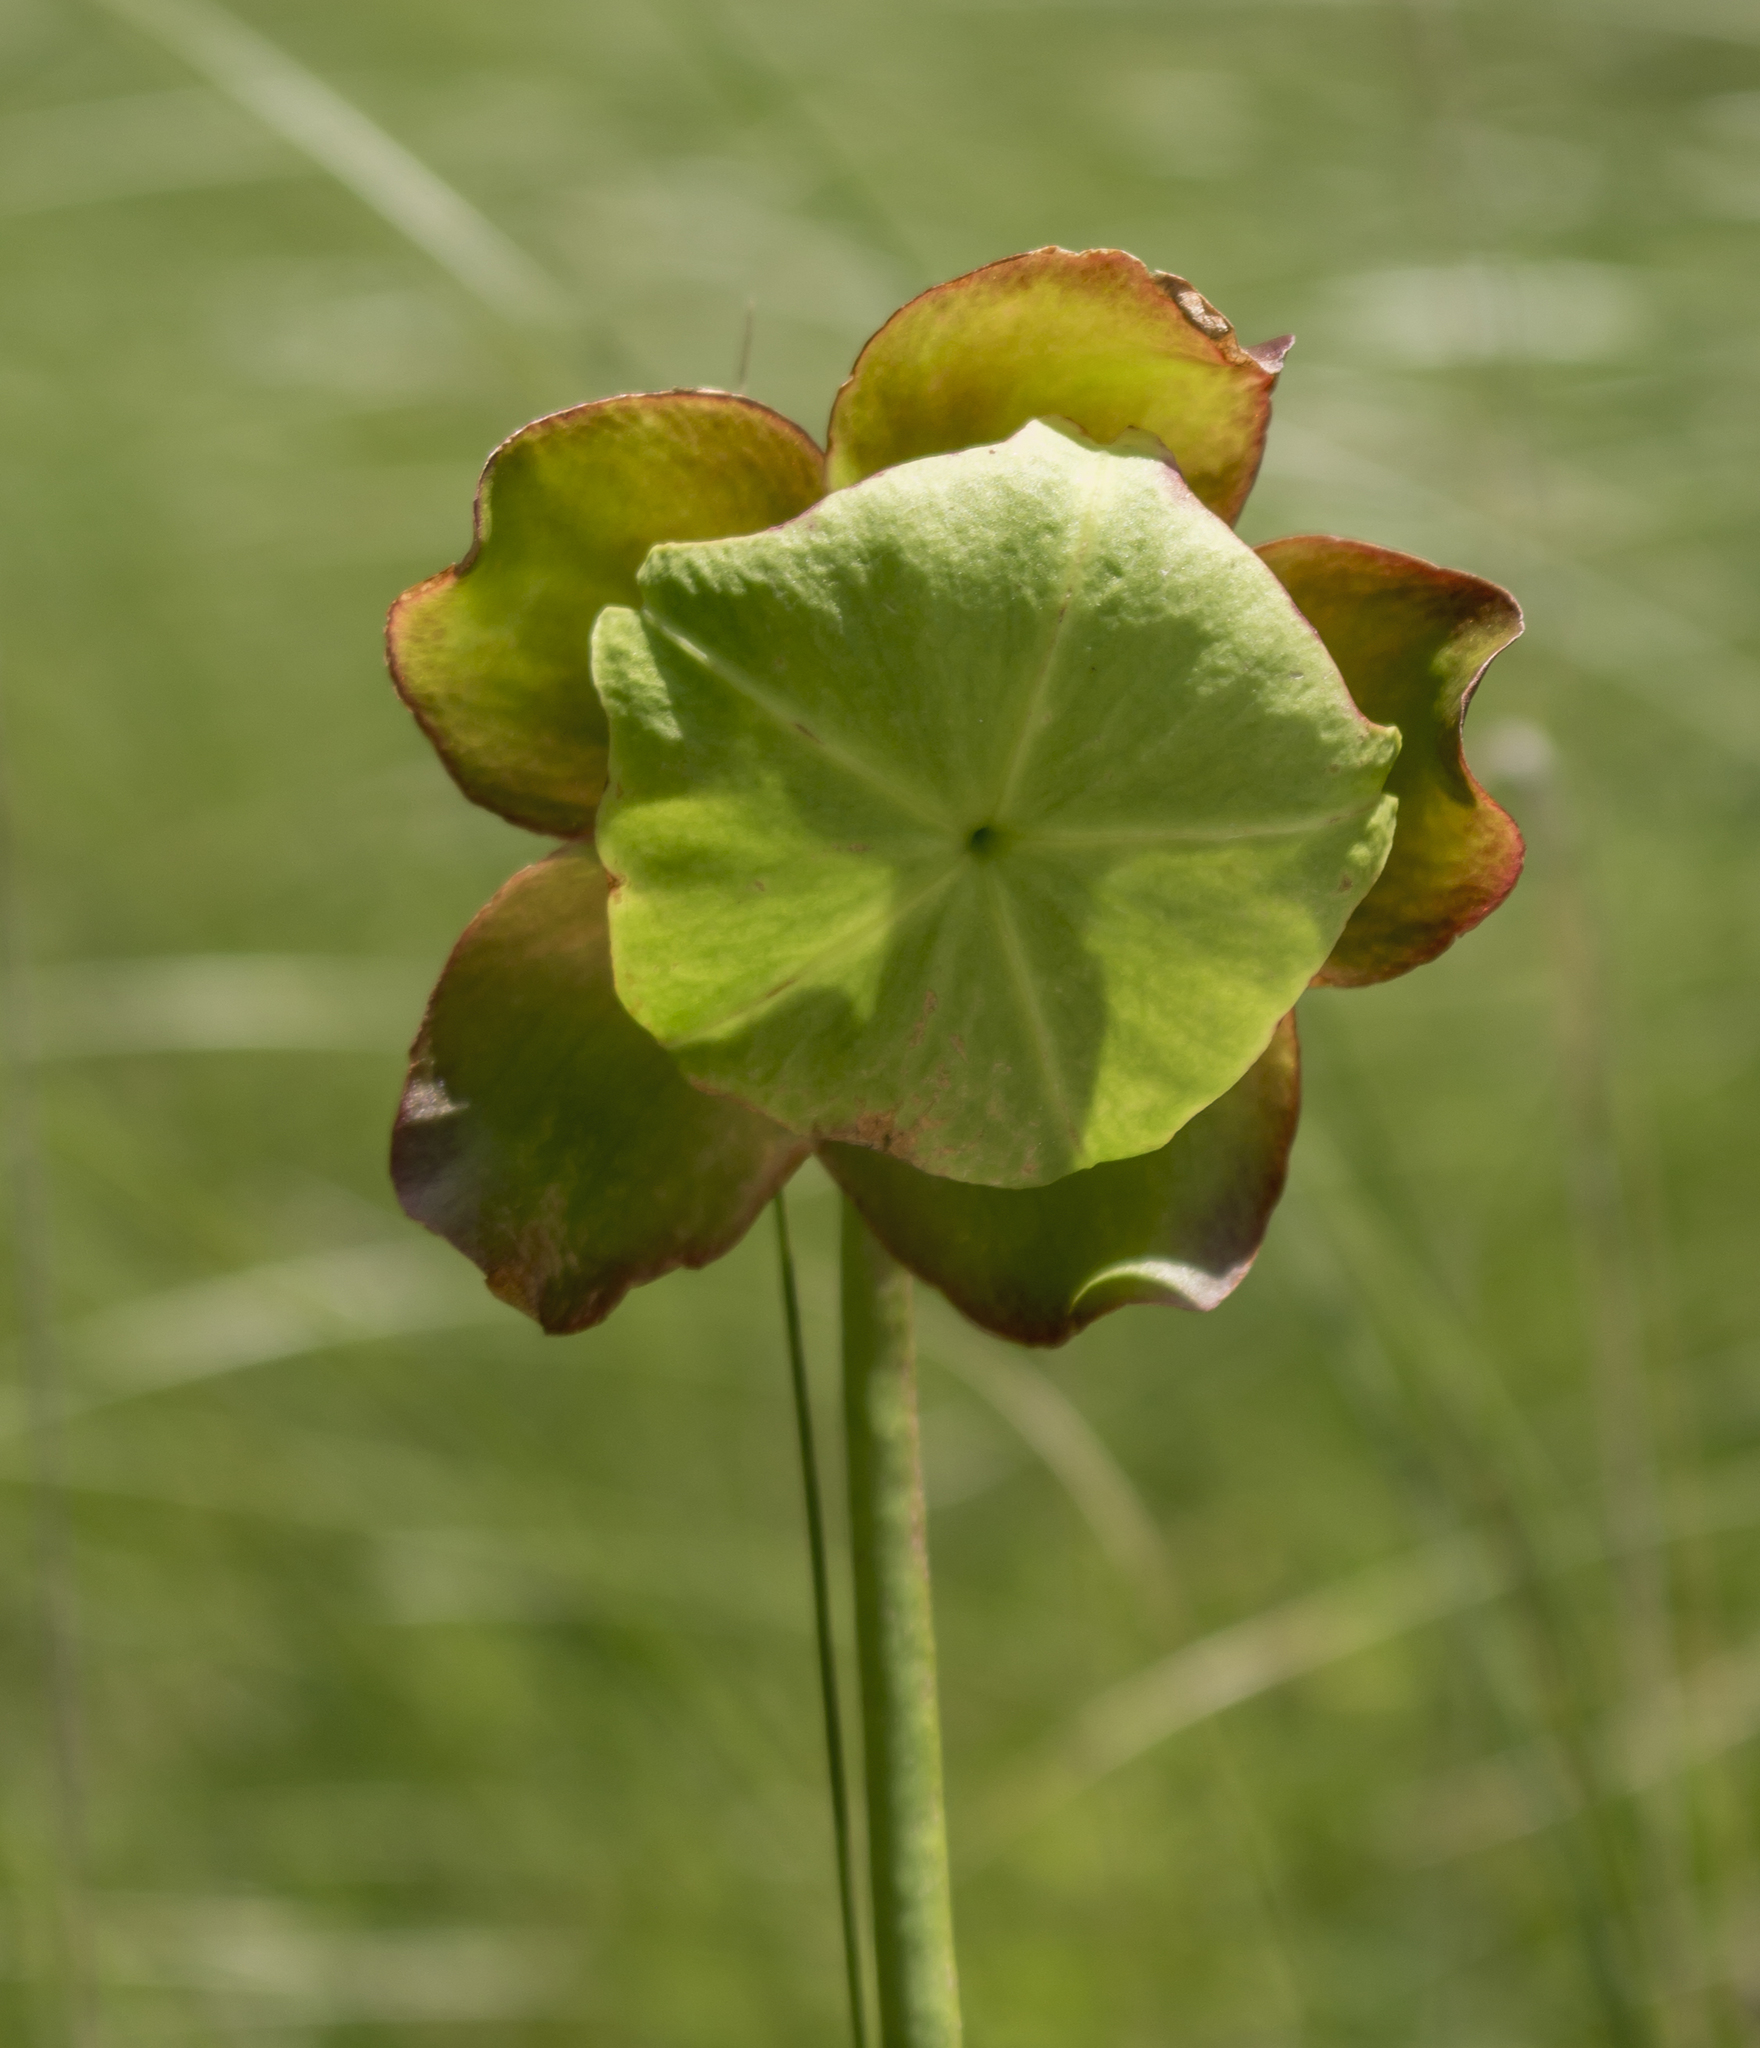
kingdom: Plantae
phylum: Tracheophyta
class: Magnoliopsida
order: Ericales
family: Sarraceniaceae
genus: Sarracenia
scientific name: Sarracenia purpurea
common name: Pitcherplant
